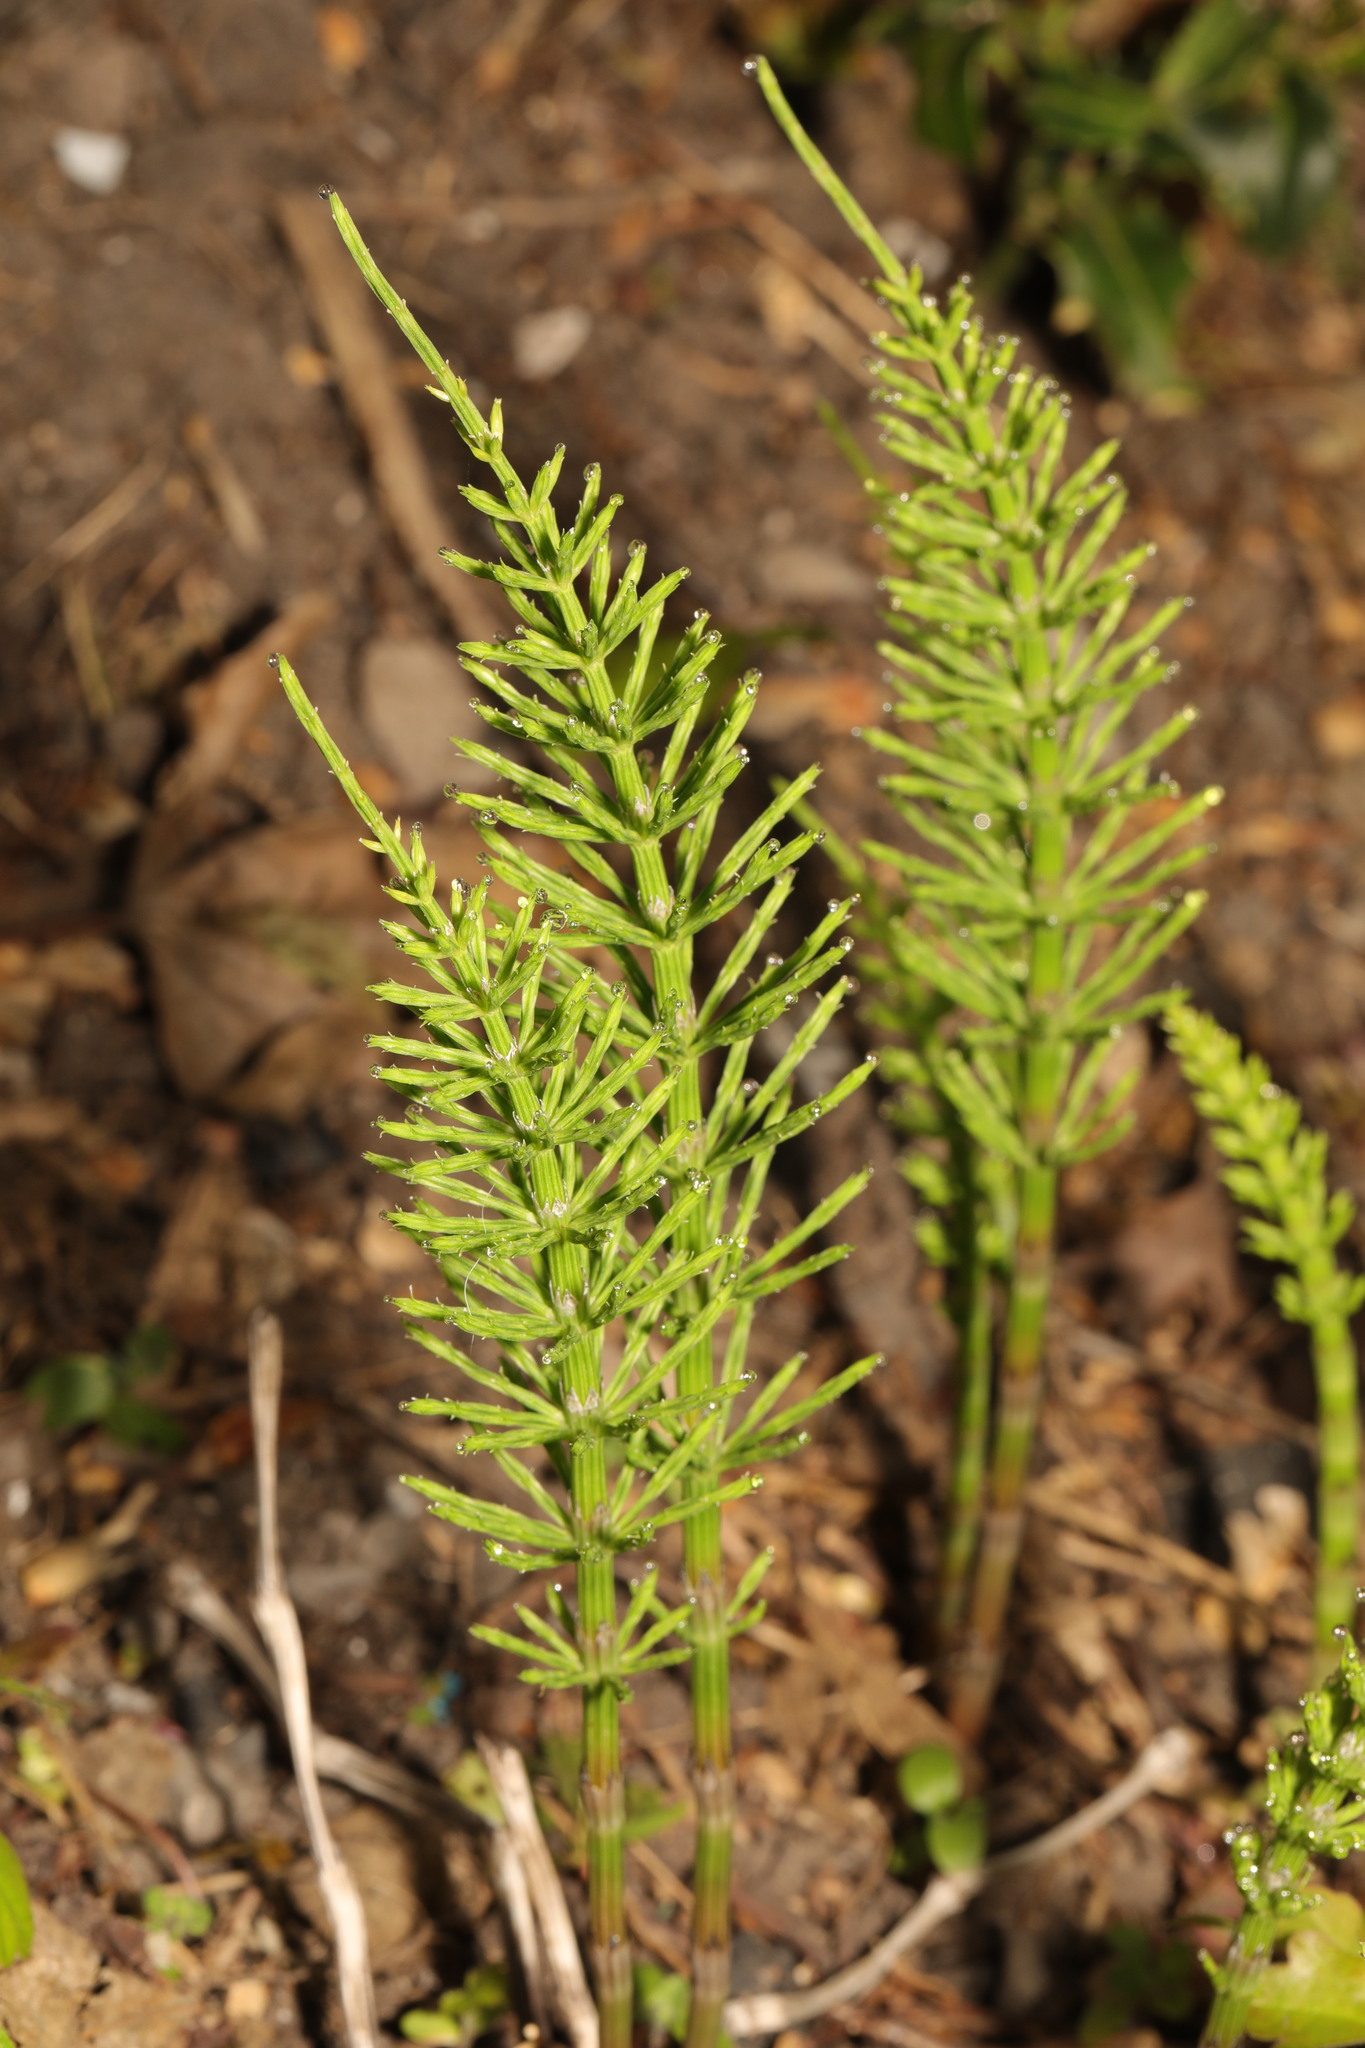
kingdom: Plantae
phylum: Tracheophyta
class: Polypodiopsida
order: Equisetales
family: Equisetaceae
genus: Equisetum
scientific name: Equisetum arvense
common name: Field horsetail
